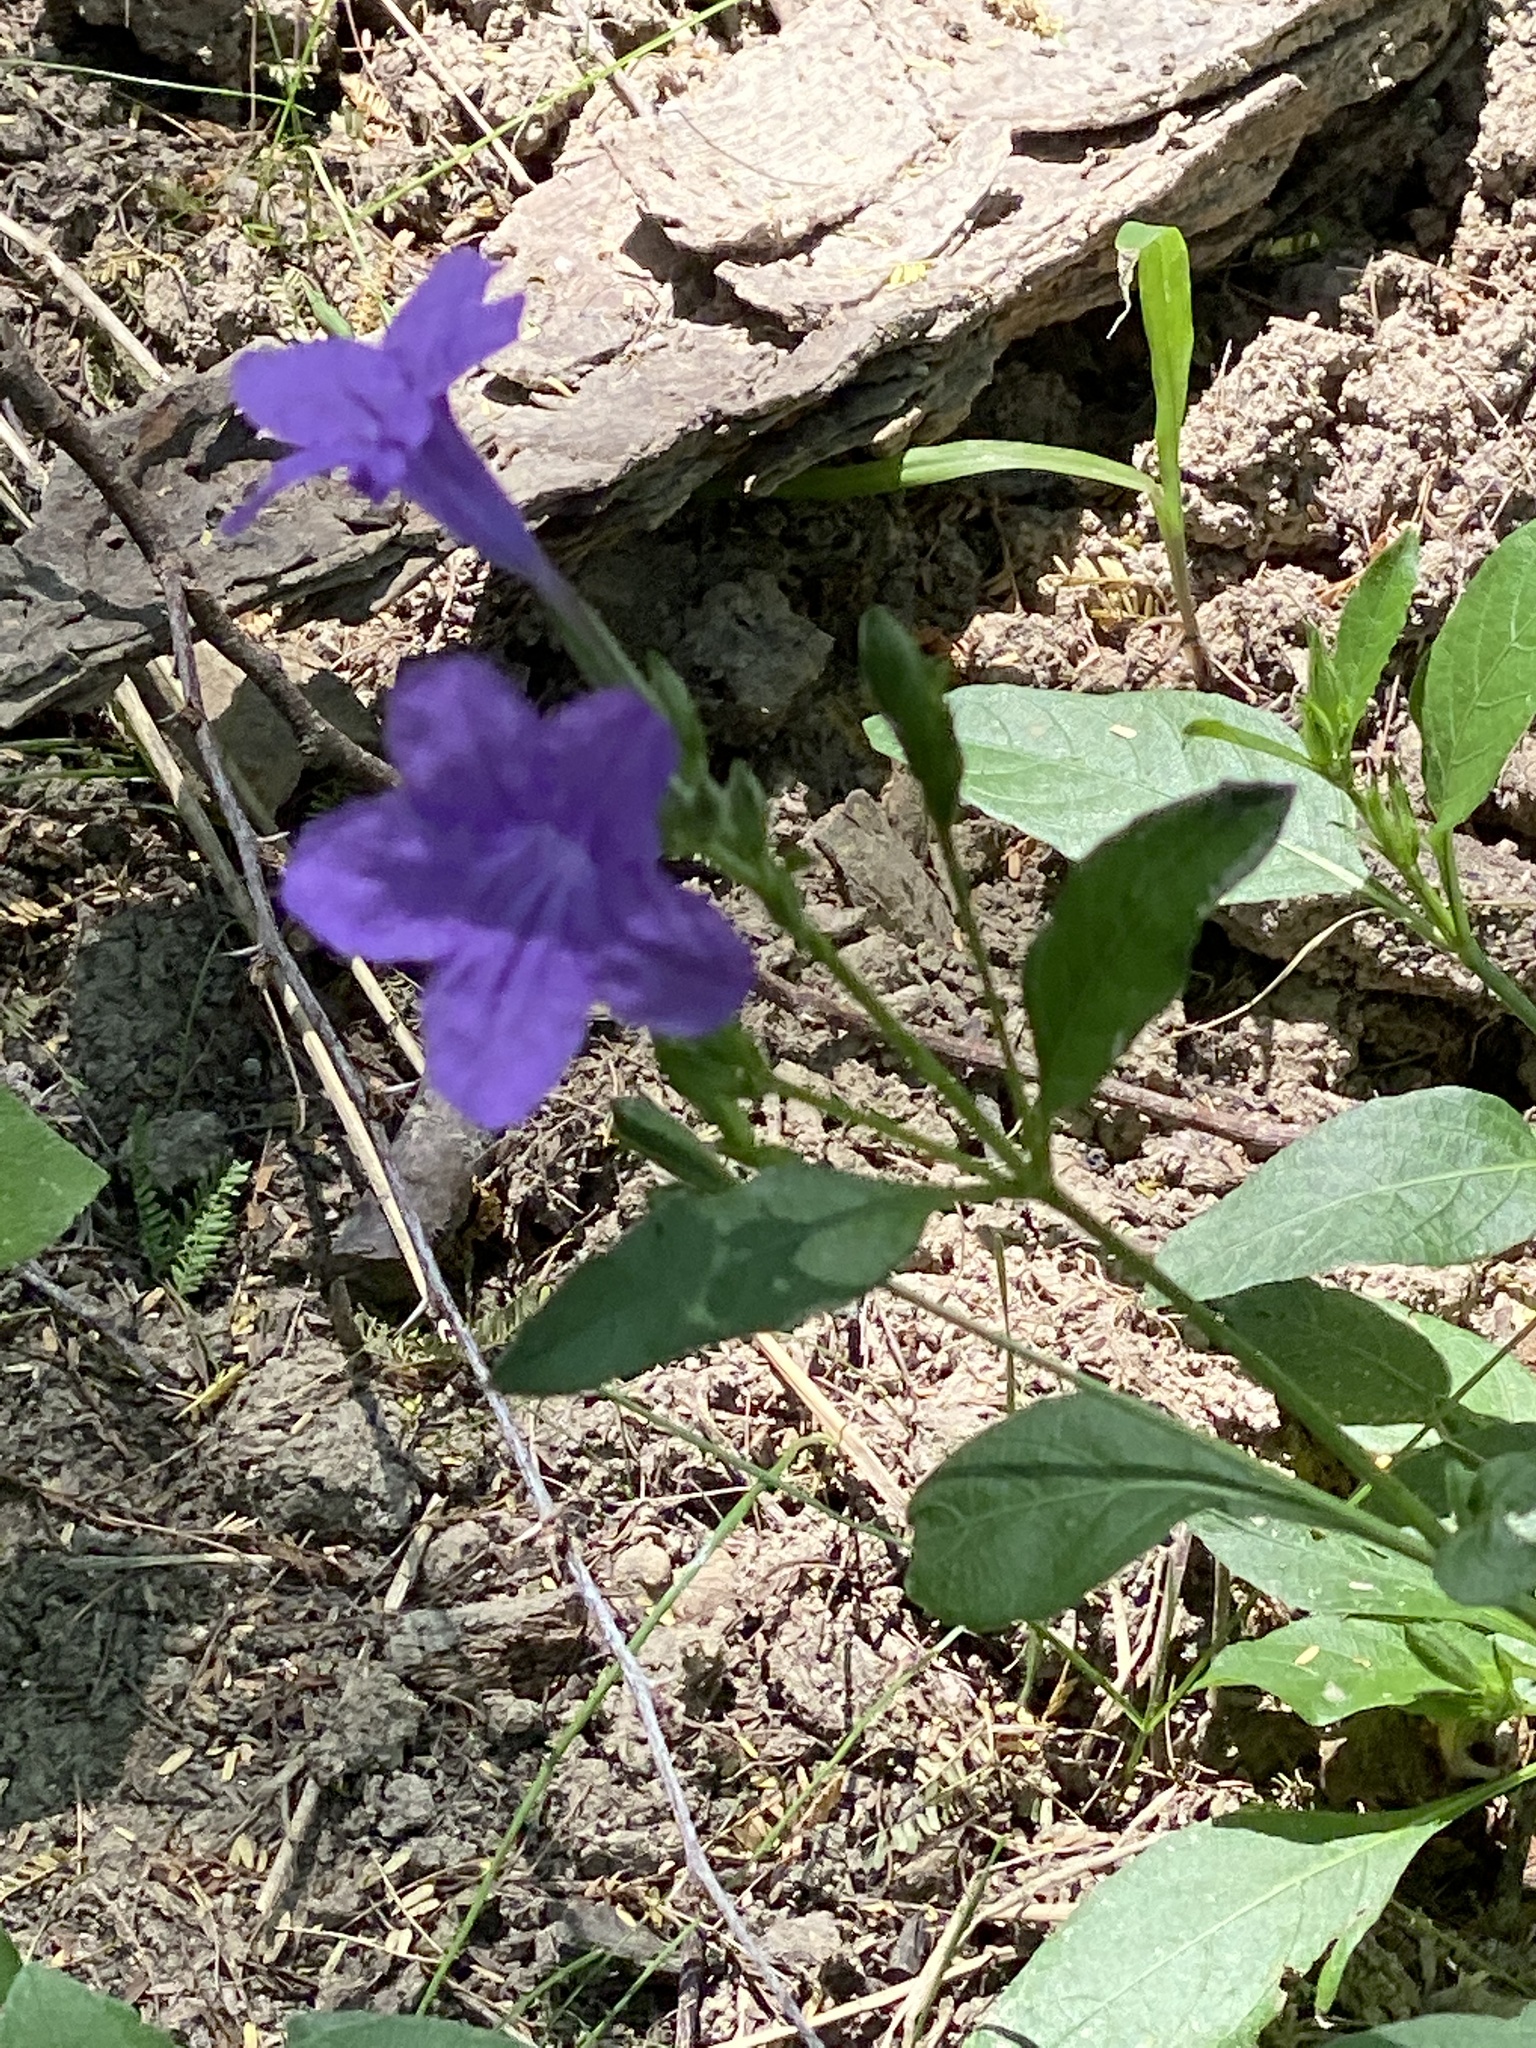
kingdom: Plantae
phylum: Tracheophyta
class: Magnoliopsida
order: Lamiales
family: Acanthaceae
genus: Ruellia
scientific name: Ruellia ciliatiflora
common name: Hairyflower wild petunia
